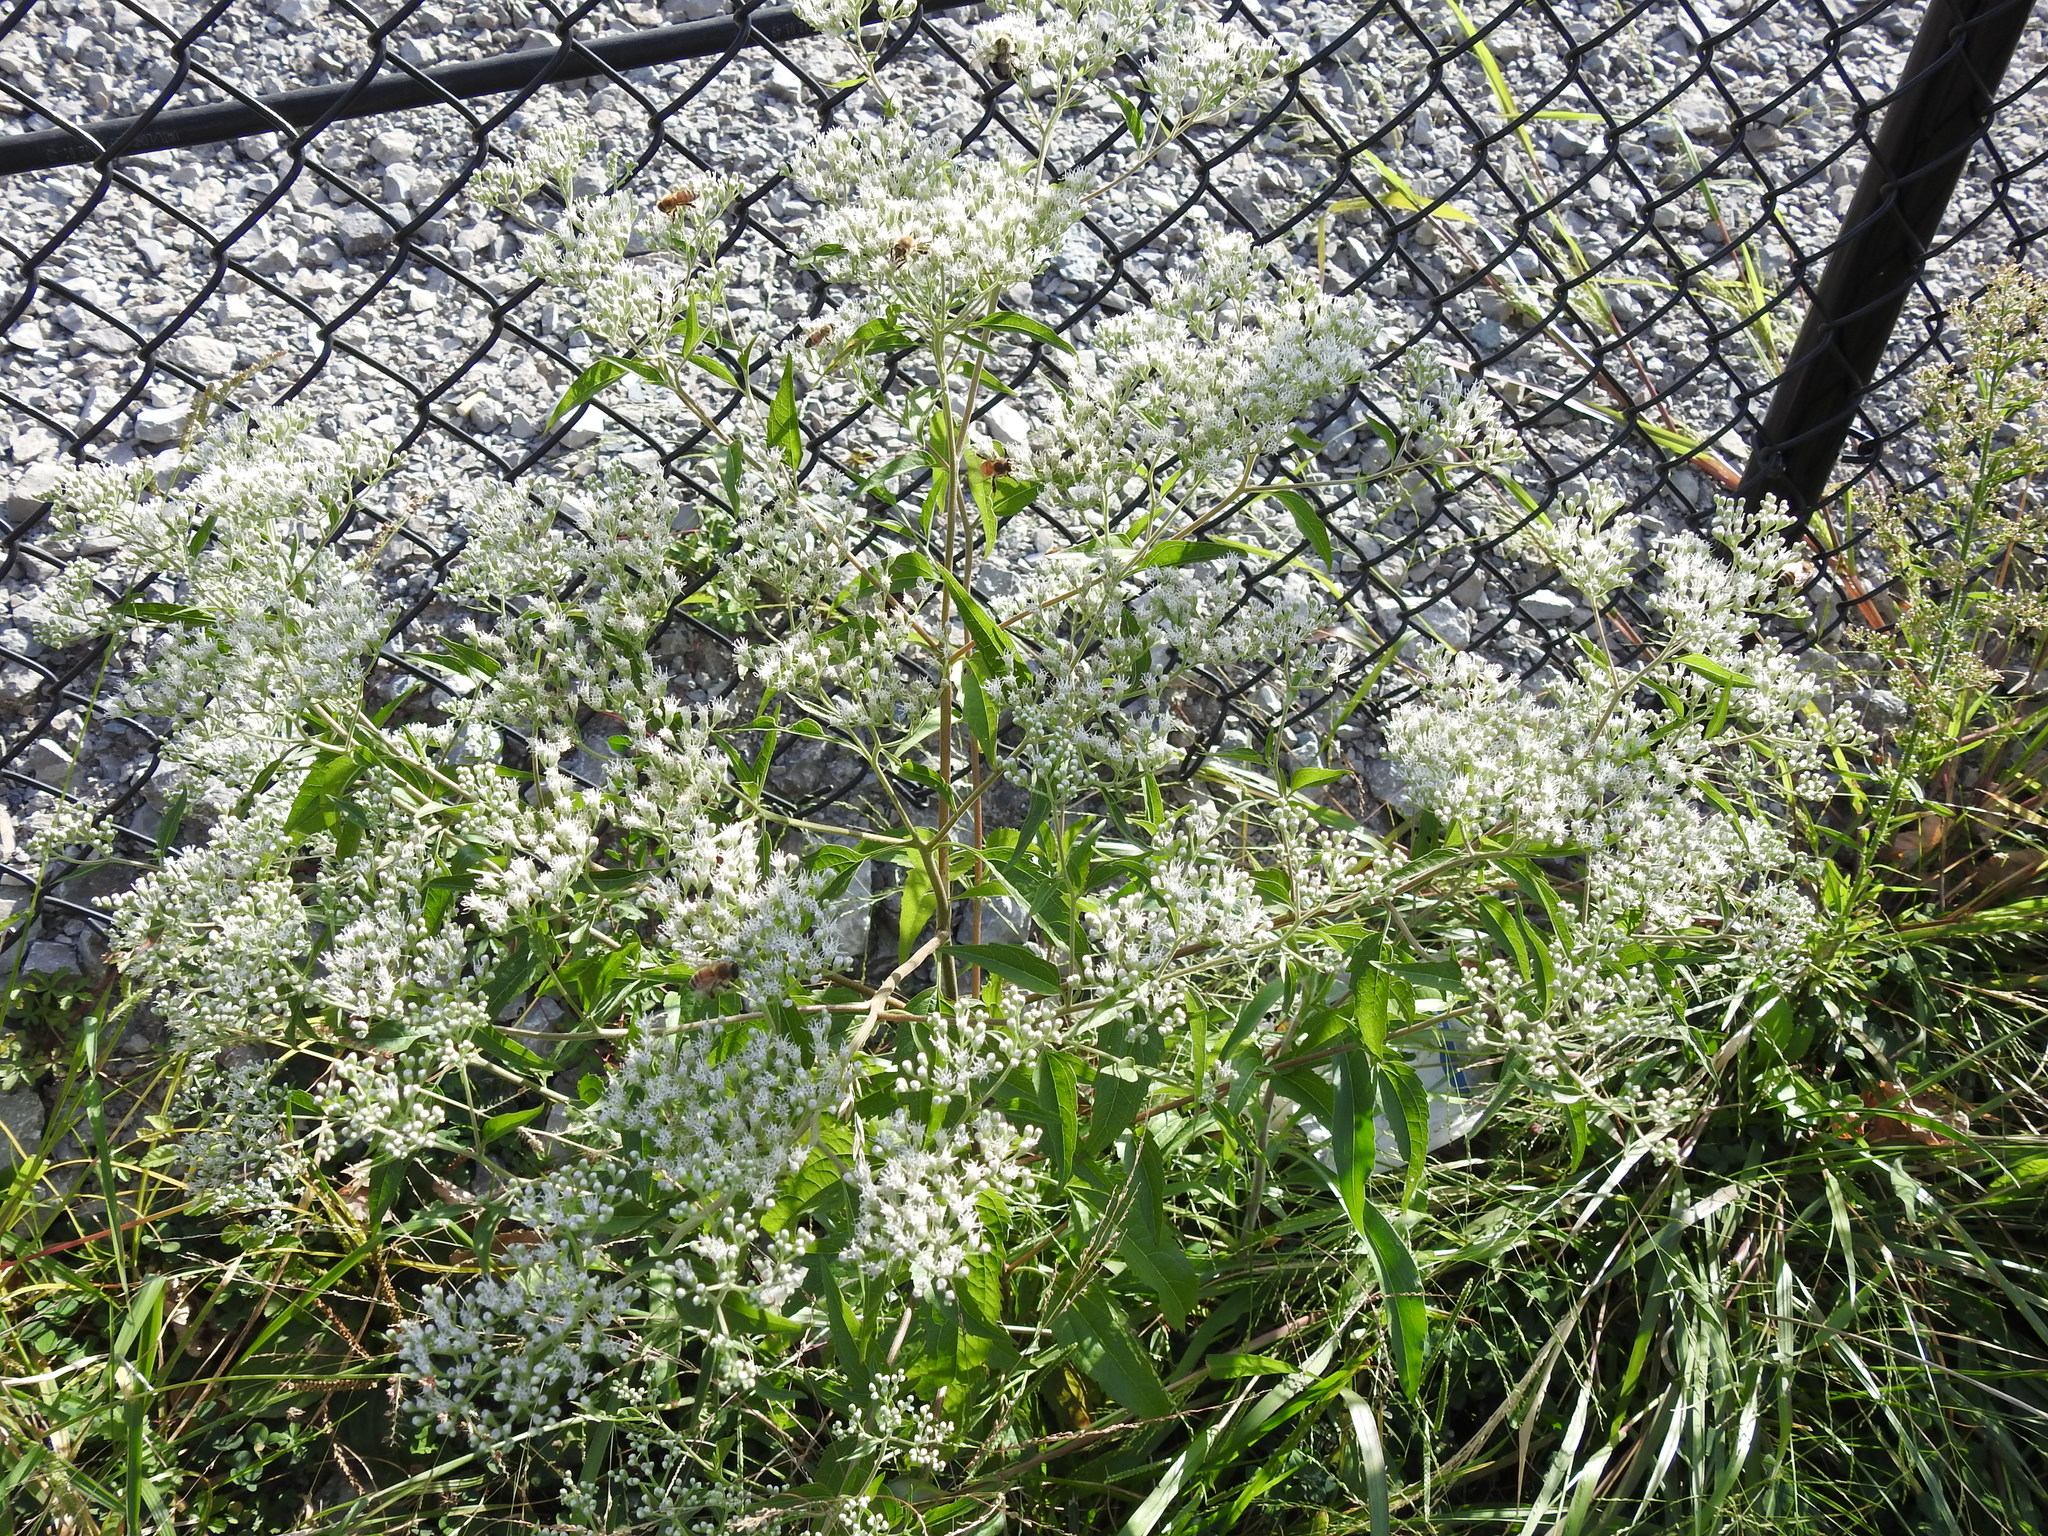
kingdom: Plantae
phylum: Tracheophyta
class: Magnoliopsida
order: Asterales
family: Asteraceae
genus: Eupatorium
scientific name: Eupatorium serotinum
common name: Late boneset
